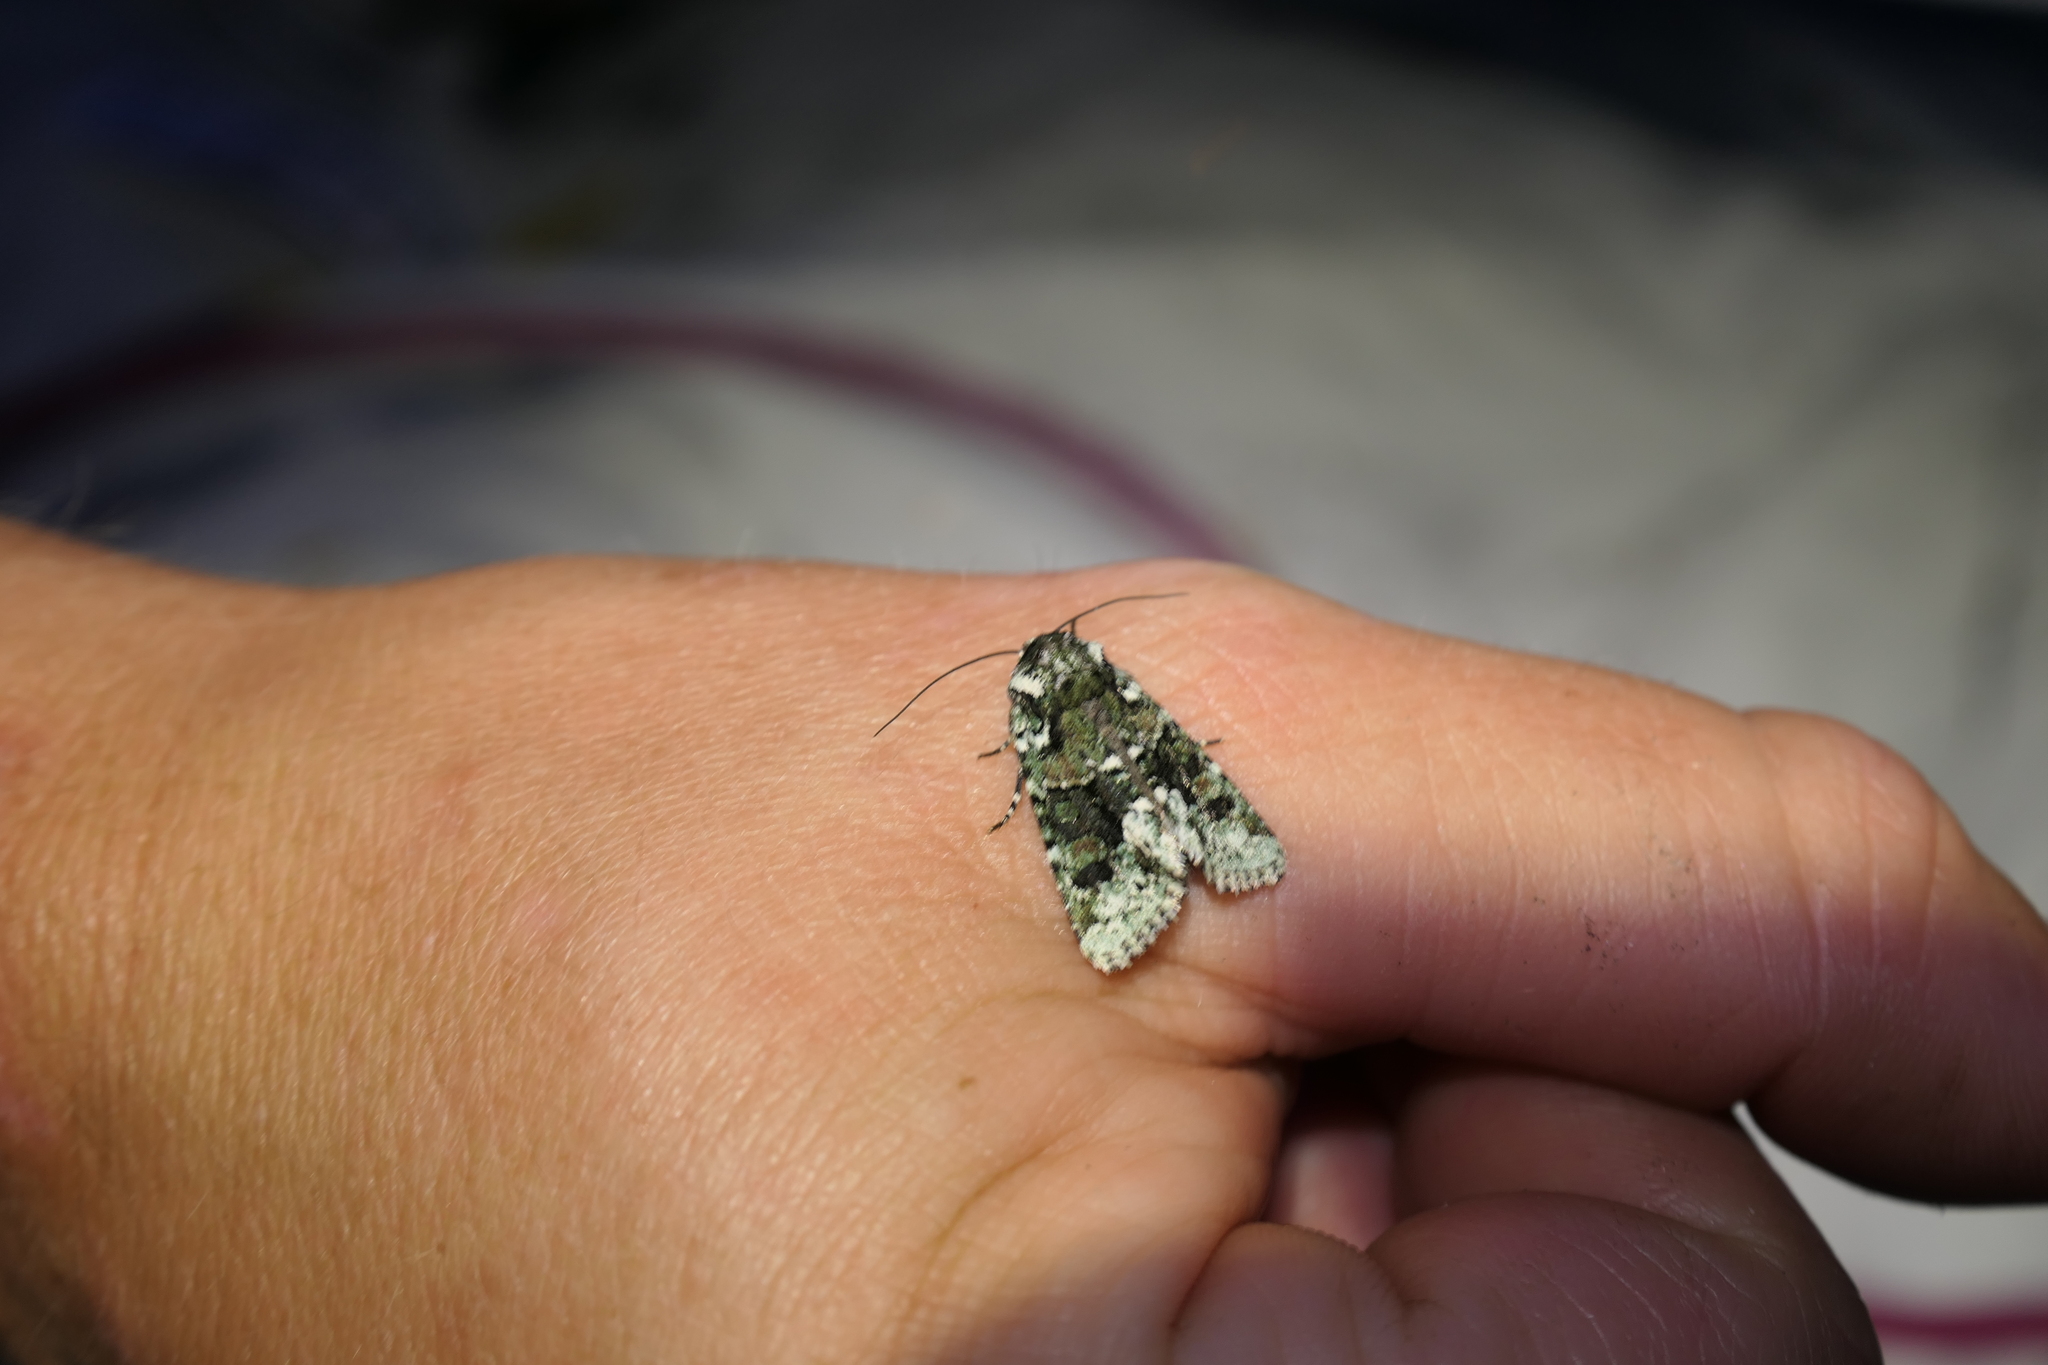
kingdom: Animalia
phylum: Arthropoda
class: Insecta
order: Lepidoptera
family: Noctuidae
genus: Lacinipolia
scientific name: Lacinipolia explicata
